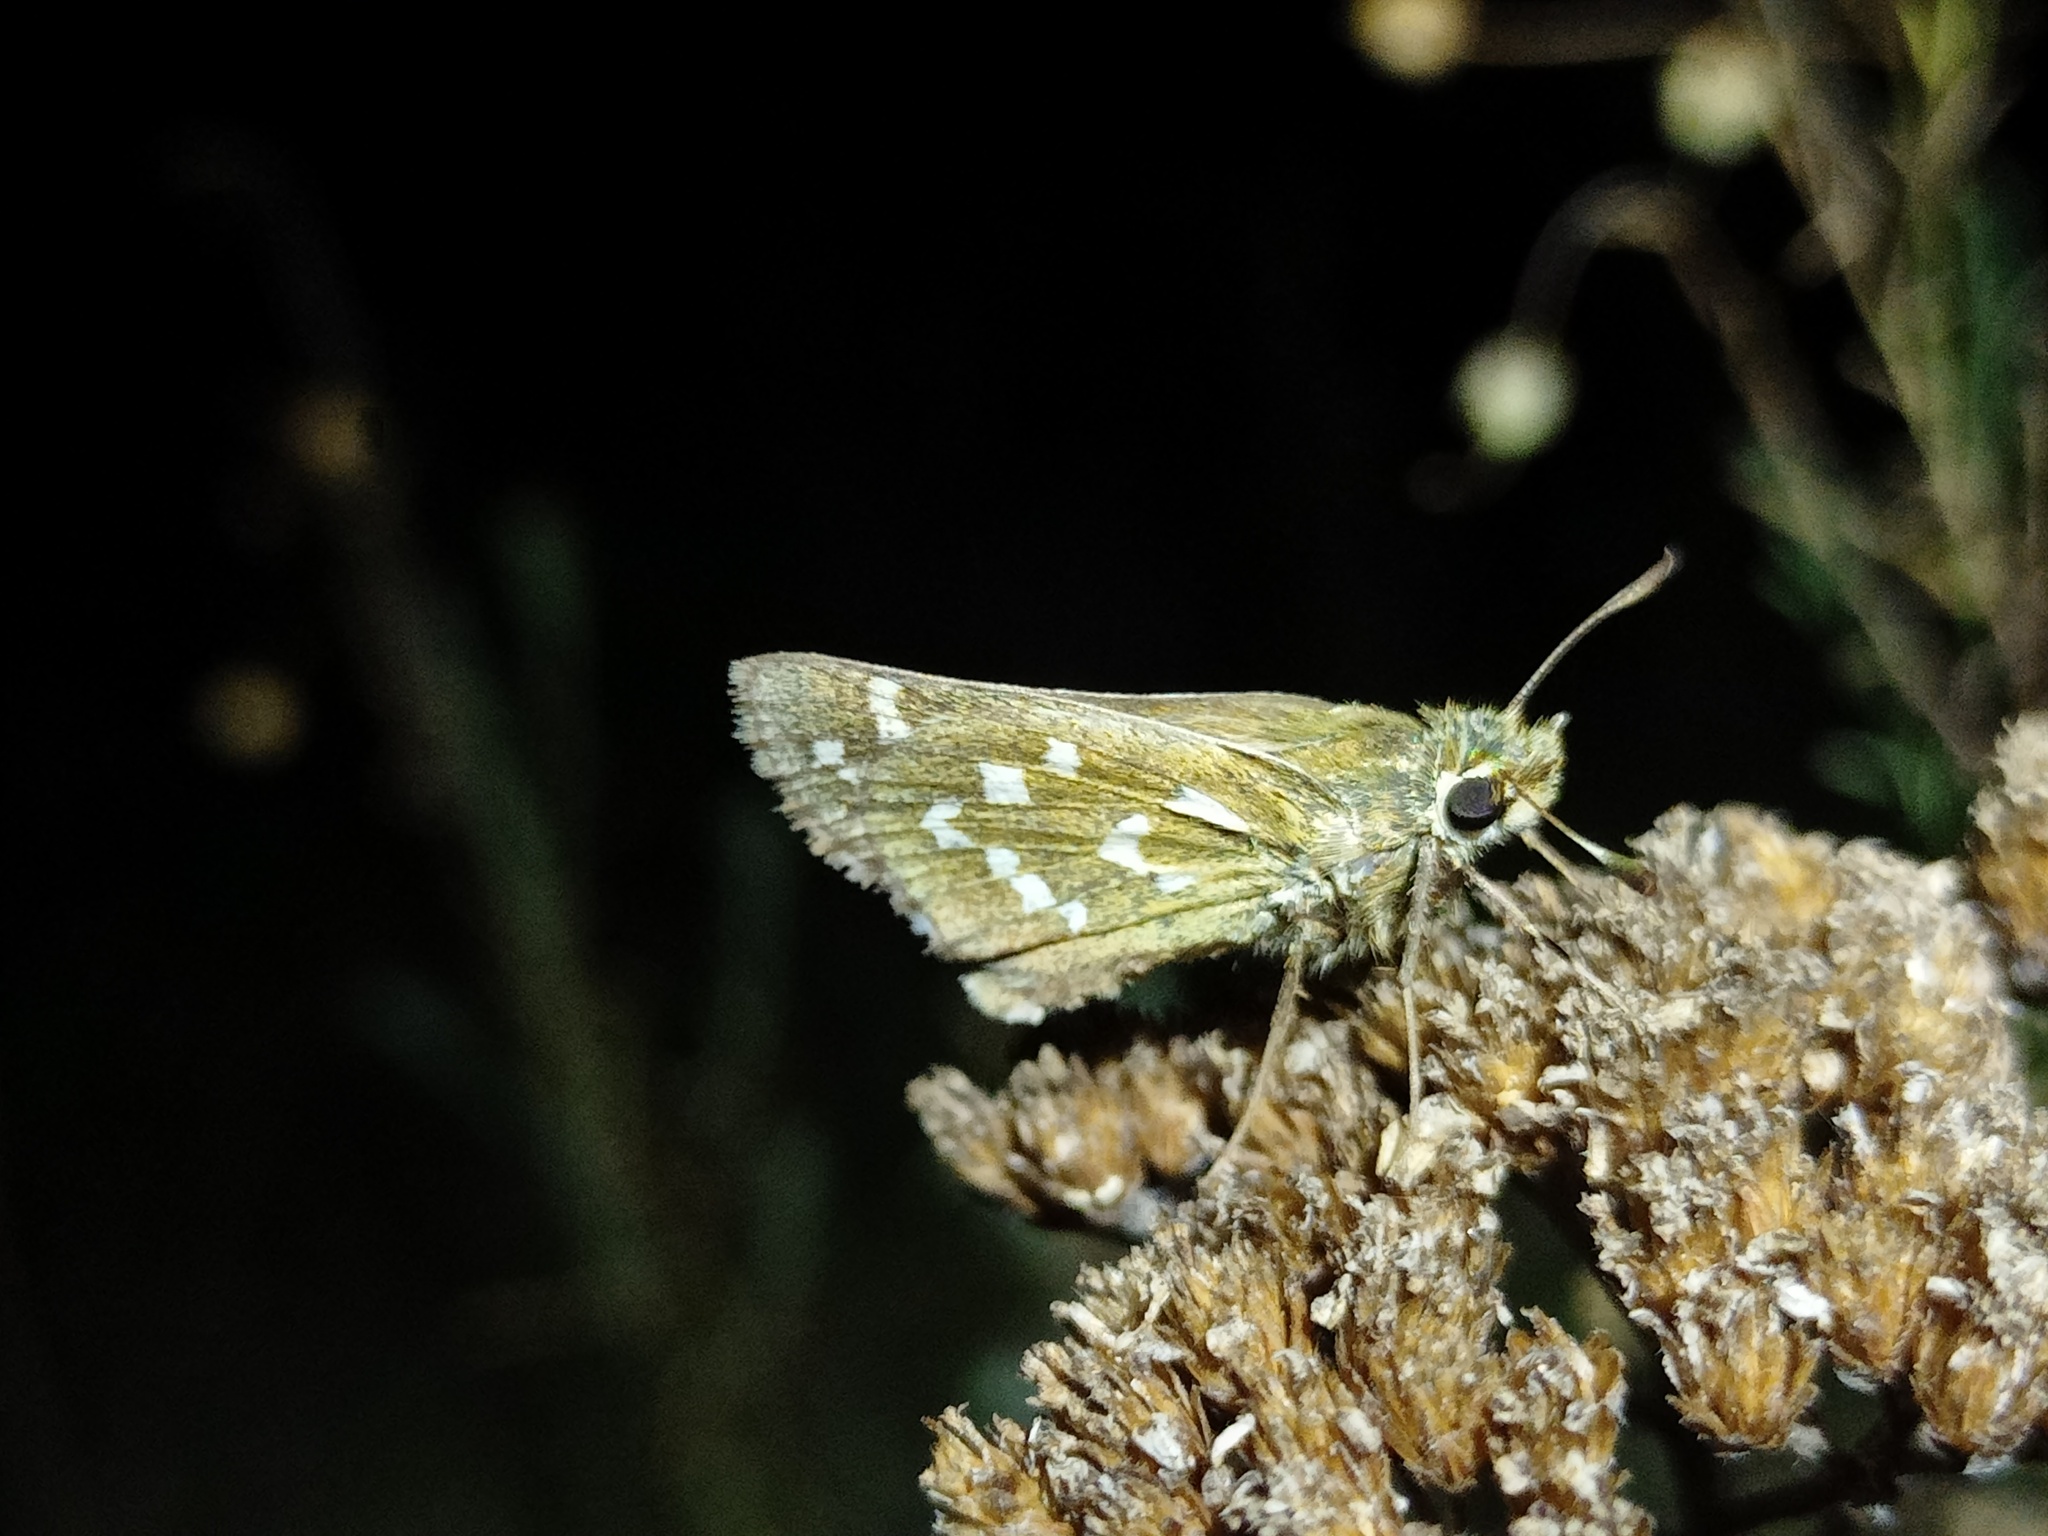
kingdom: Animalia
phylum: Arthropoda
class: Insecta
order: Lepidoptera
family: Hesperiidae
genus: Hesperia
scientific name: Hesperia comma
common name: Common branded skipper
